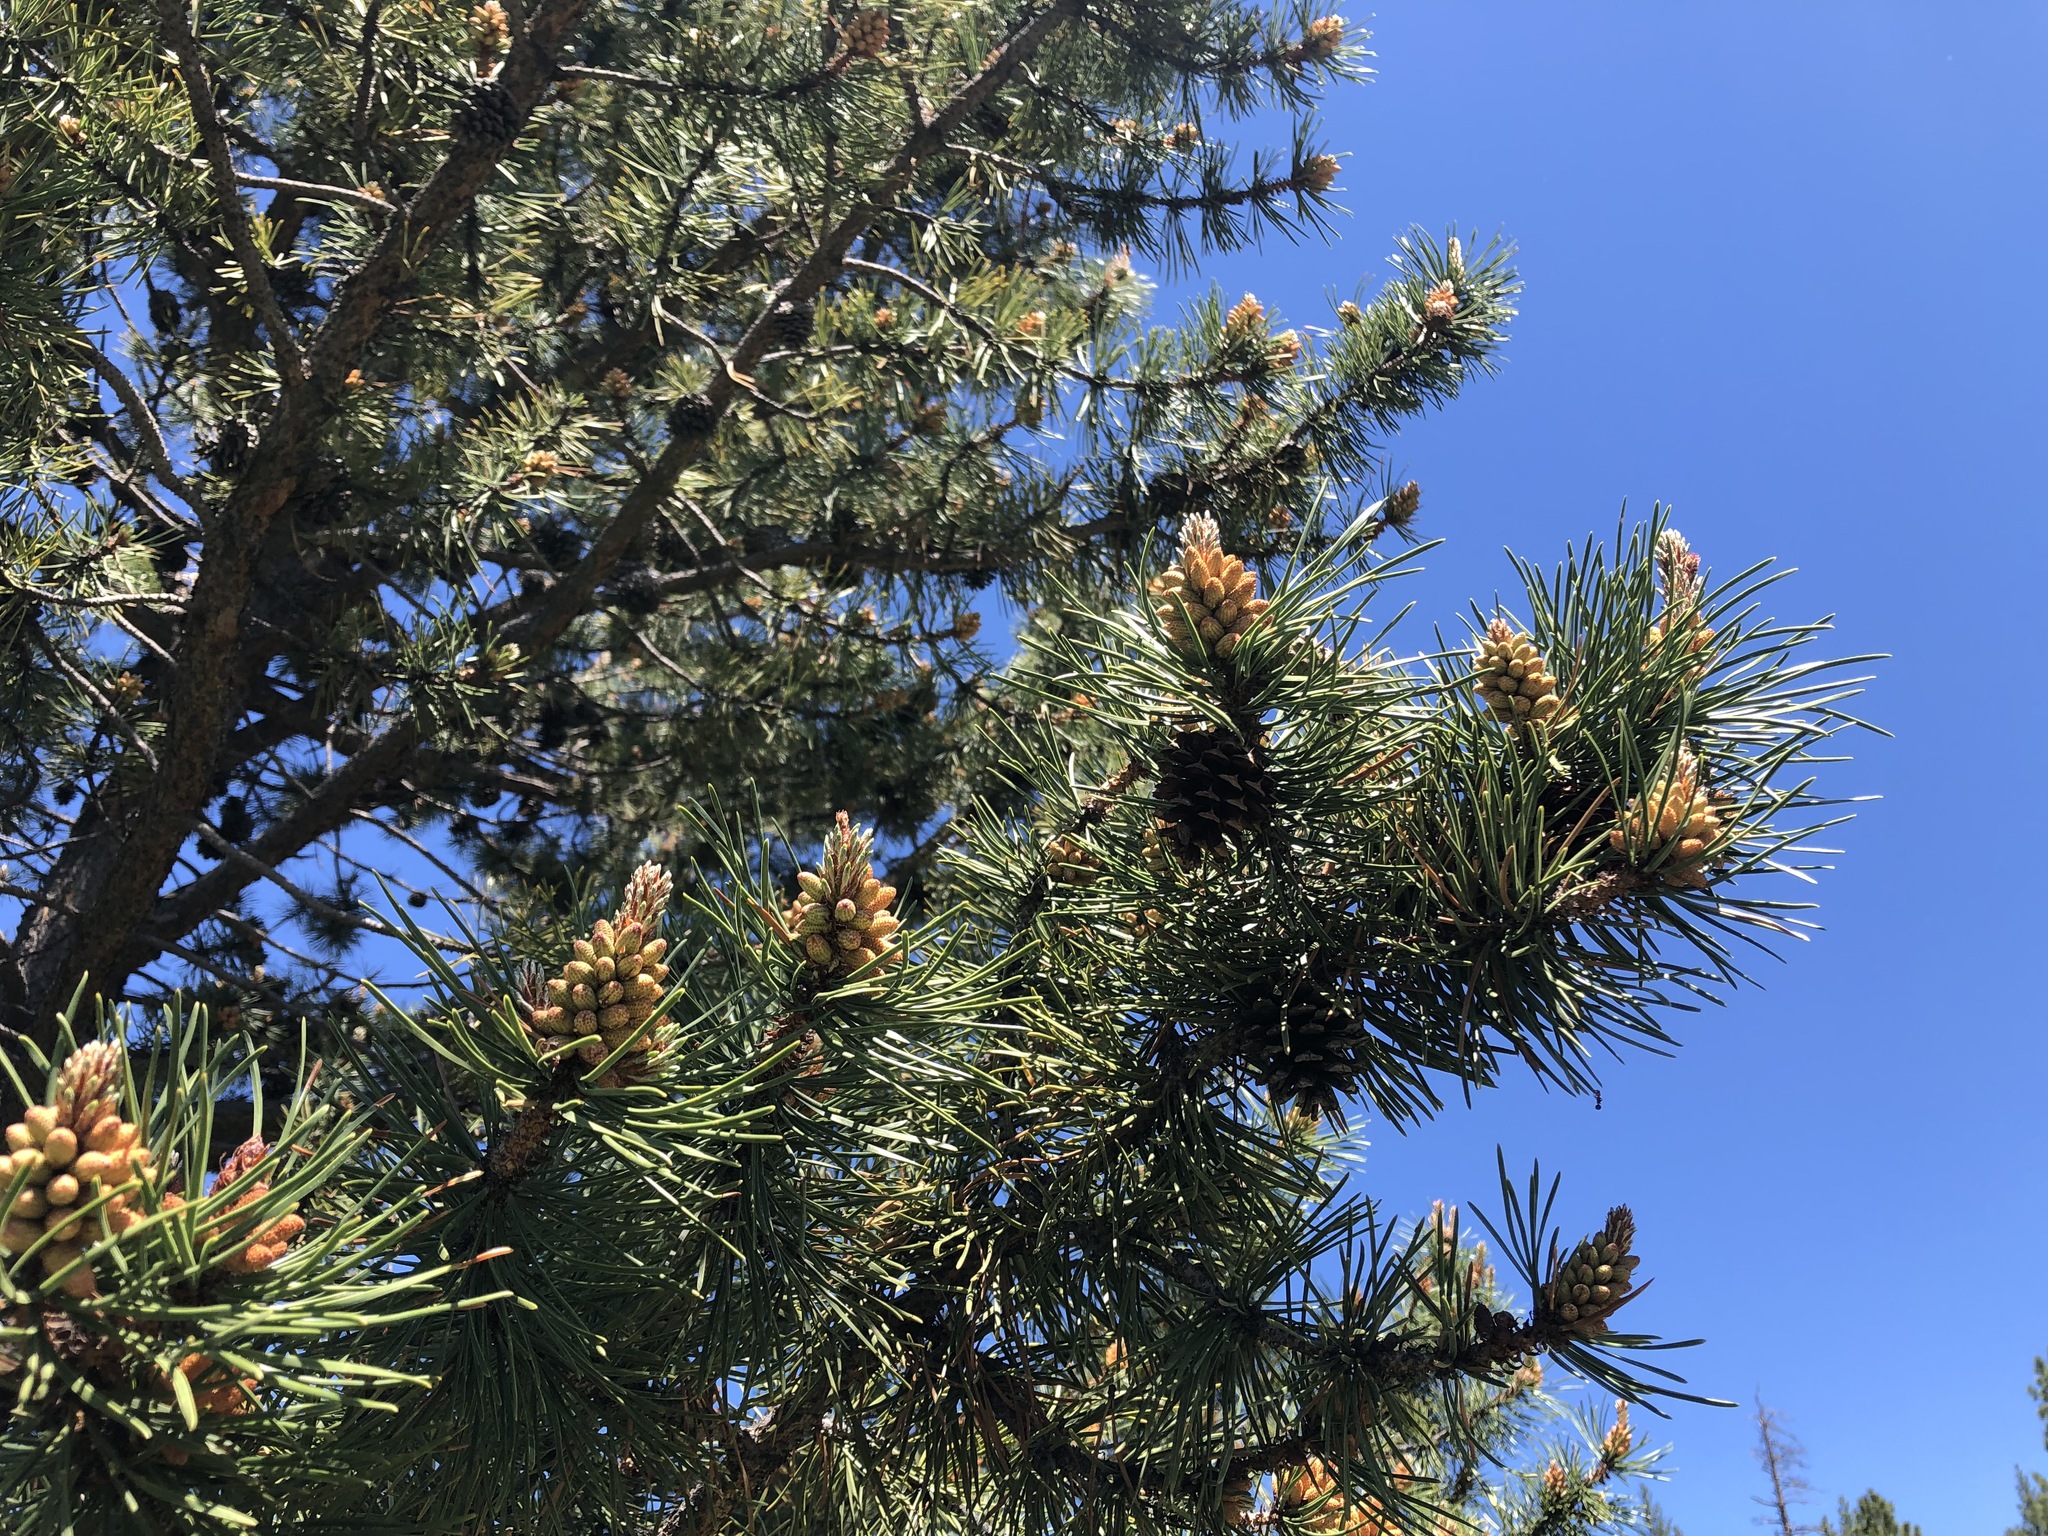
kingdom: Plantae
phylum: Tracheophyta
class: Pinopsida
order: Pinales
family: Pinaceae
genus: Pinus
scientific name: Pinus contorta
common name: Lodgepole pine
